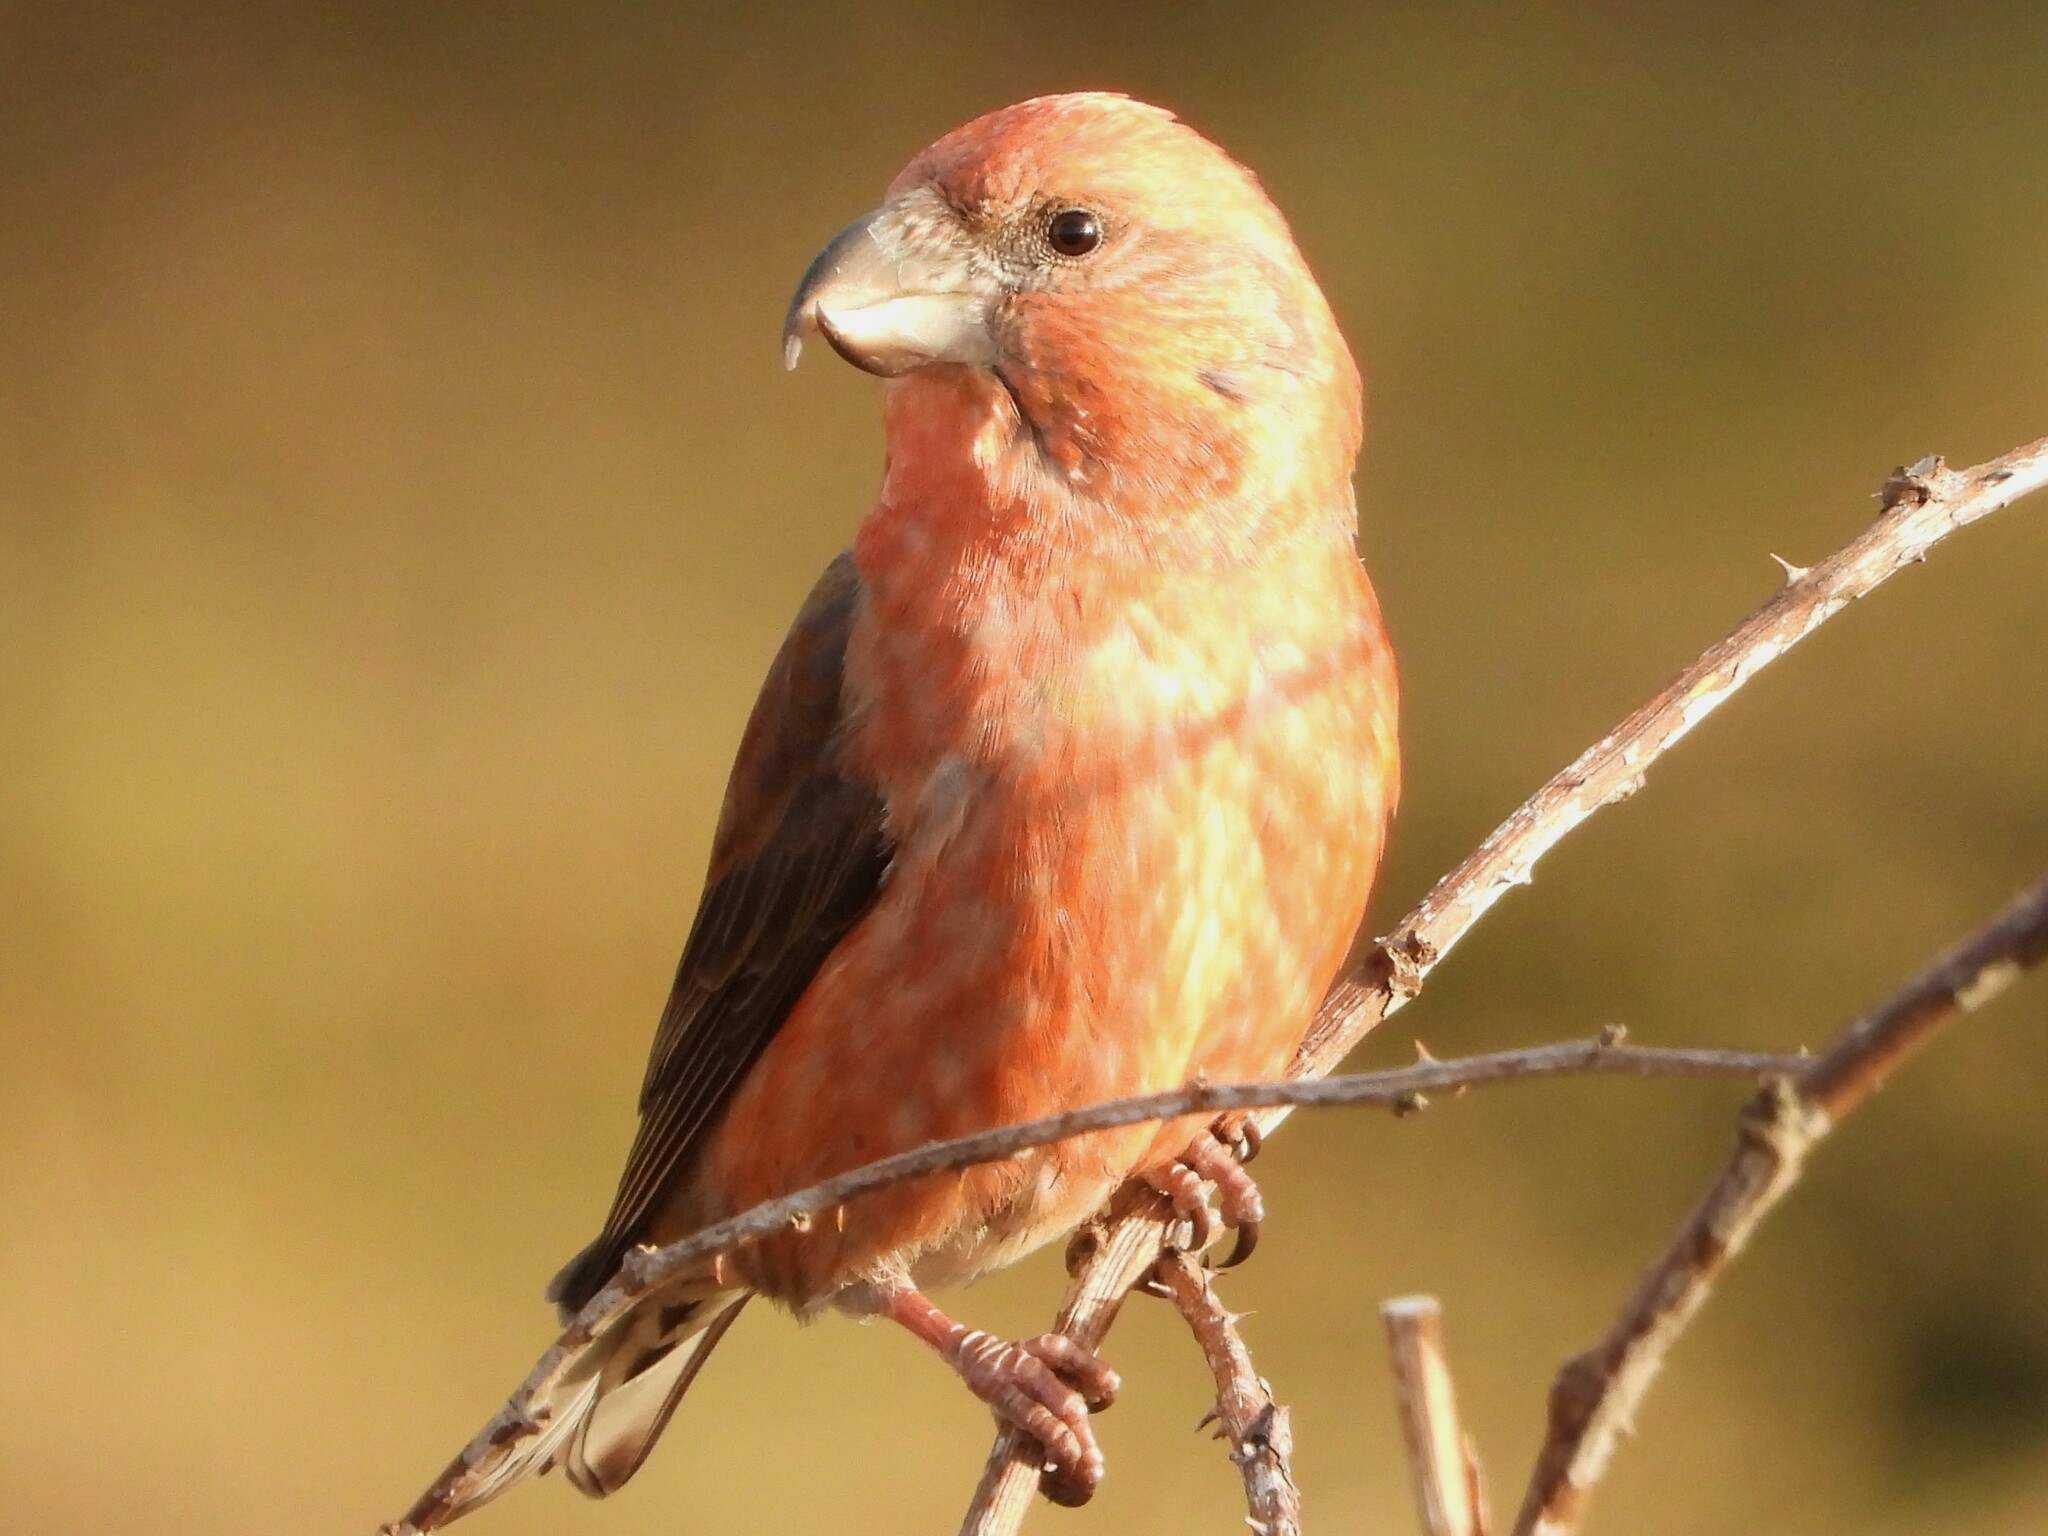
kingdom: Animalia
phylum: Chordata
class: Aves
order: Passeriformes
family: Fringillidae
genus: Loxia
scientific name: Loxia pytyopsittacus
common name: Parrot crossbill
